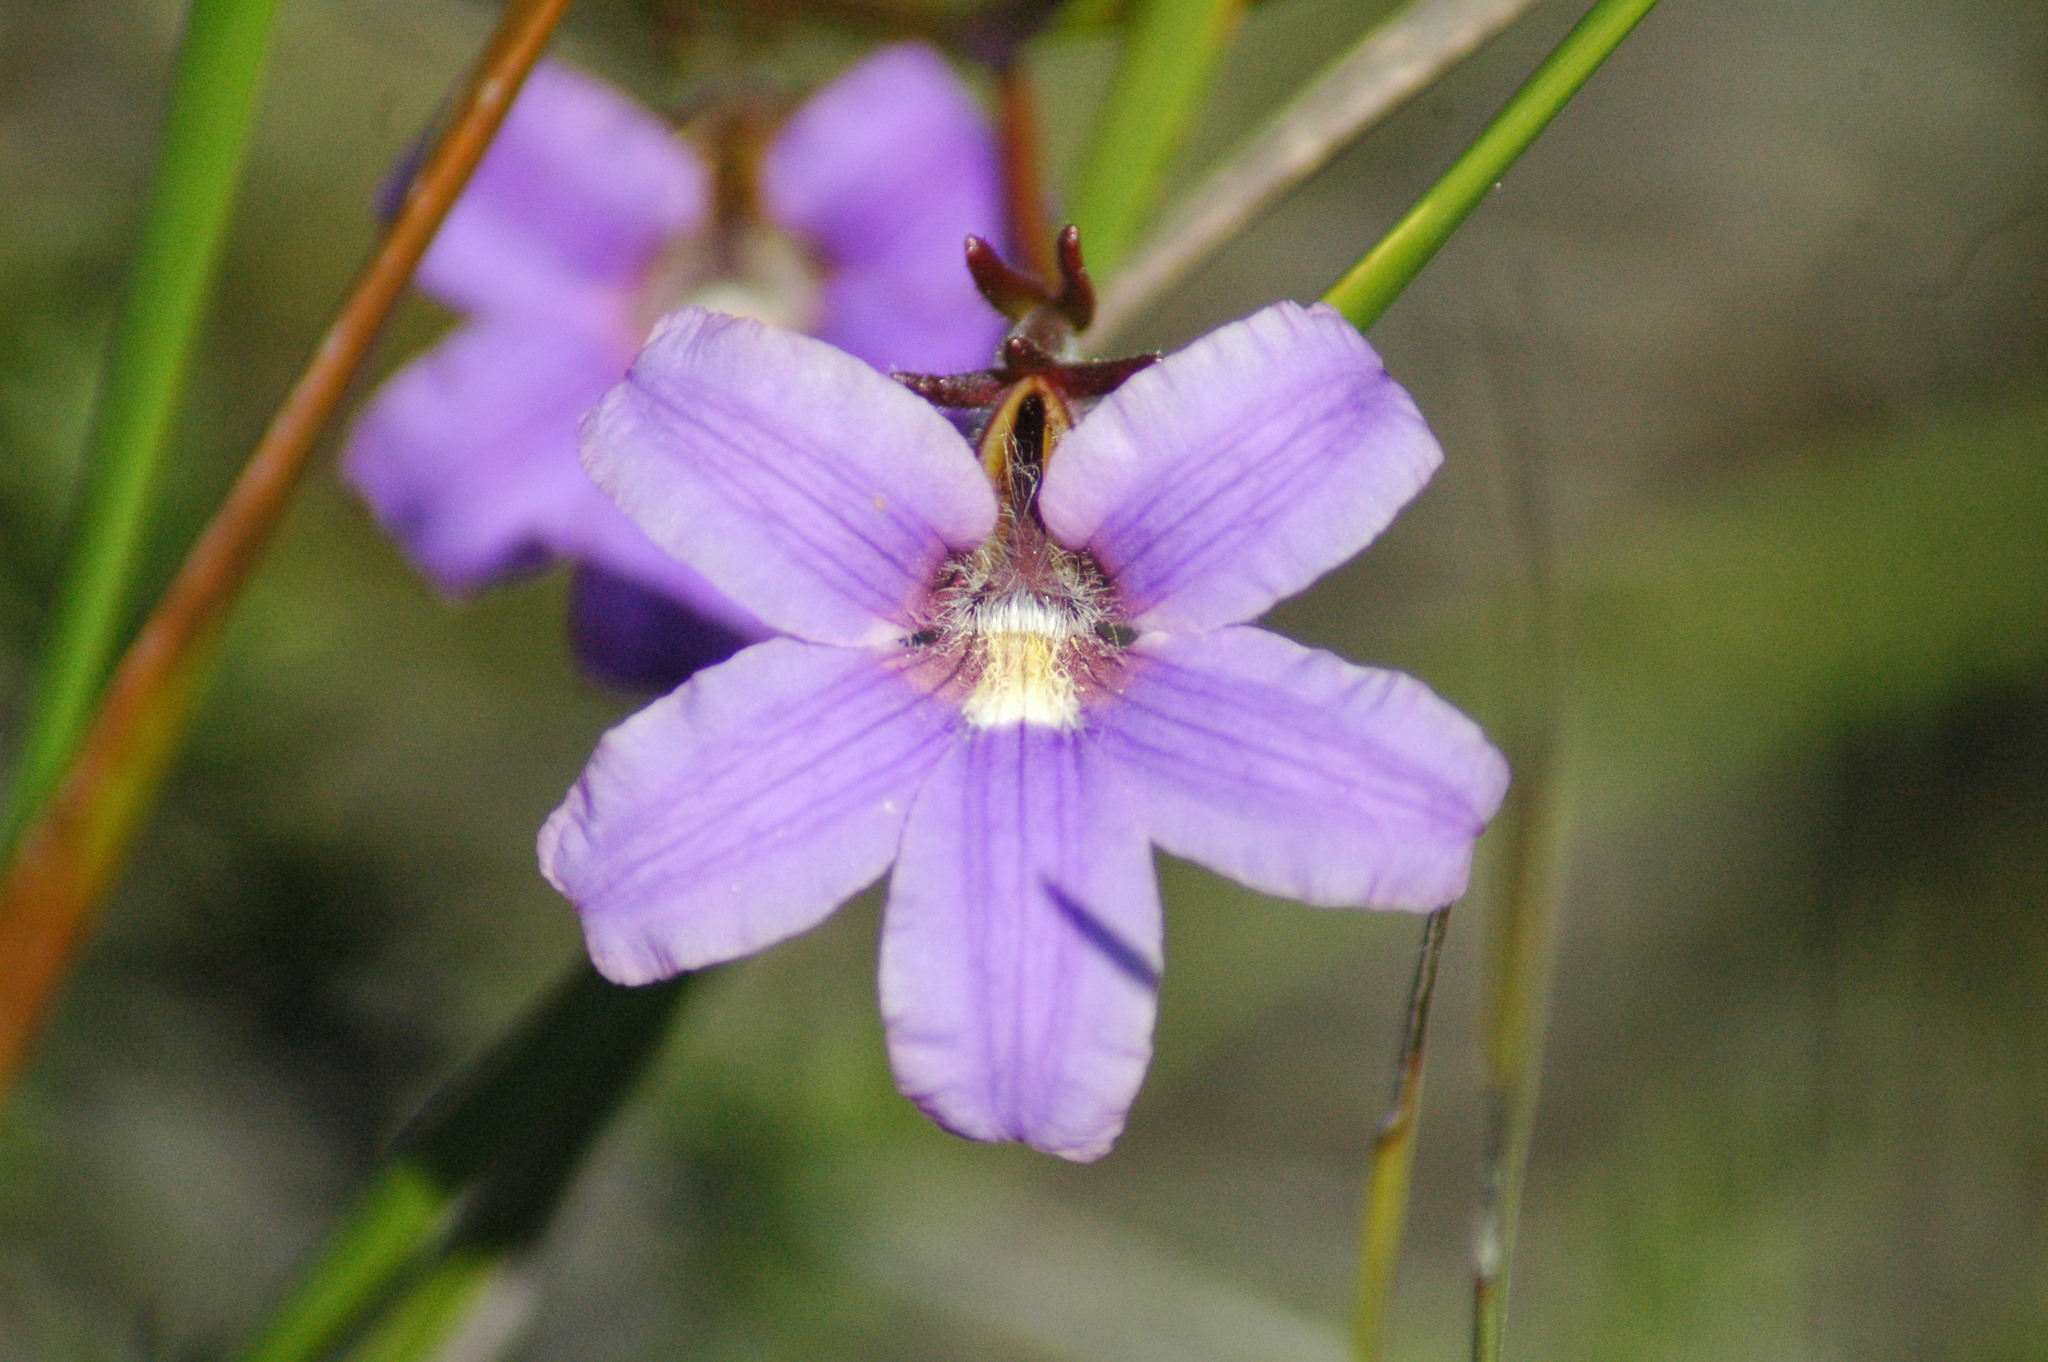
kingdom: Plantae
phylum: Tracheophyta
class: Magnoliopsida
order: Asterales
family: Goodeniaceae
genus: Scaevola
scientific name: Scaevola ramosissima
